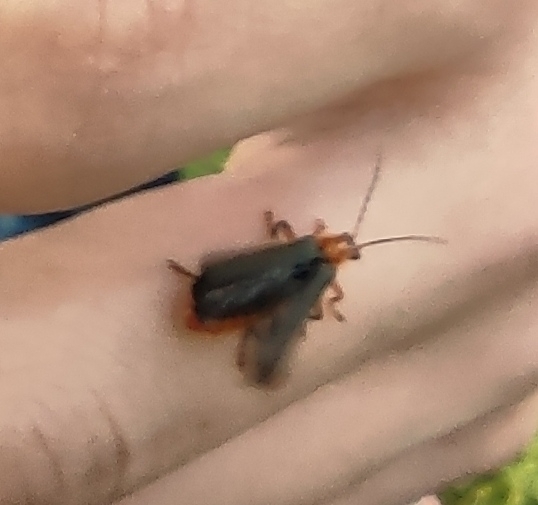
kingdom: Animalia
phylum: Arthropoda
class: Insecta
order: Coleoptera
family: Cantharidae
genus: Cantharis
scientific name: Cantharis livida
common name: Livid soldier beetle
